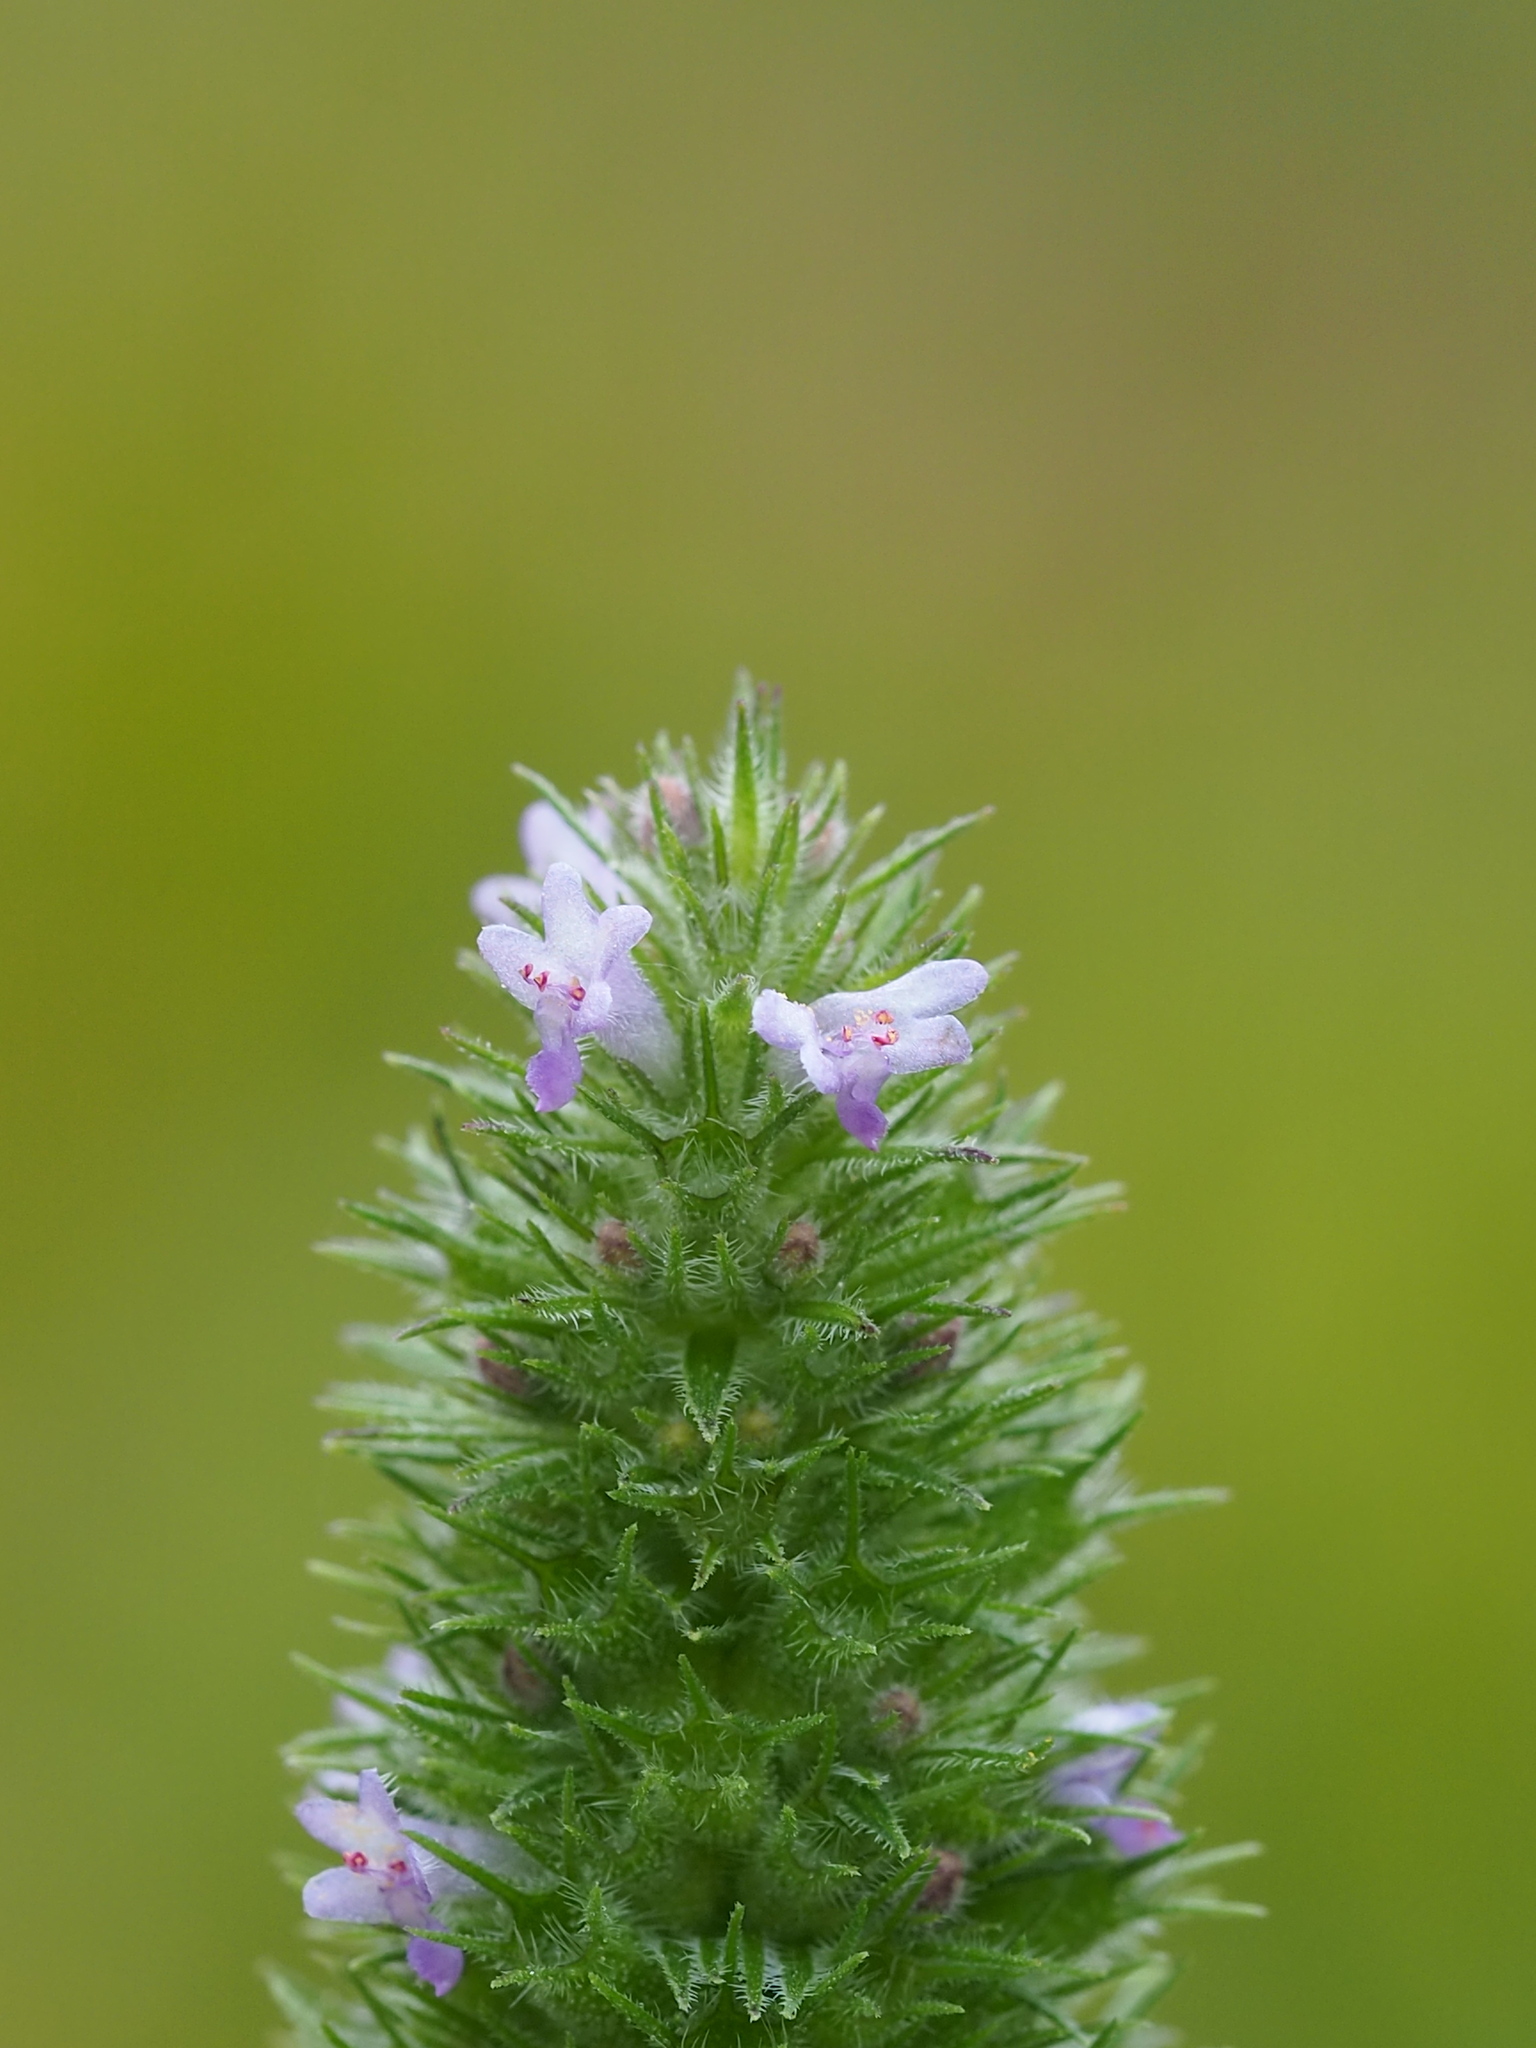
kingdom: Plantae
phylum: Tracheophyta
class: Magnoliopsida
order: Lamiales
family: Lamiaceae
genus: Cantinoa
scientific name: Cantinoa americana
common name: Black-sesame
